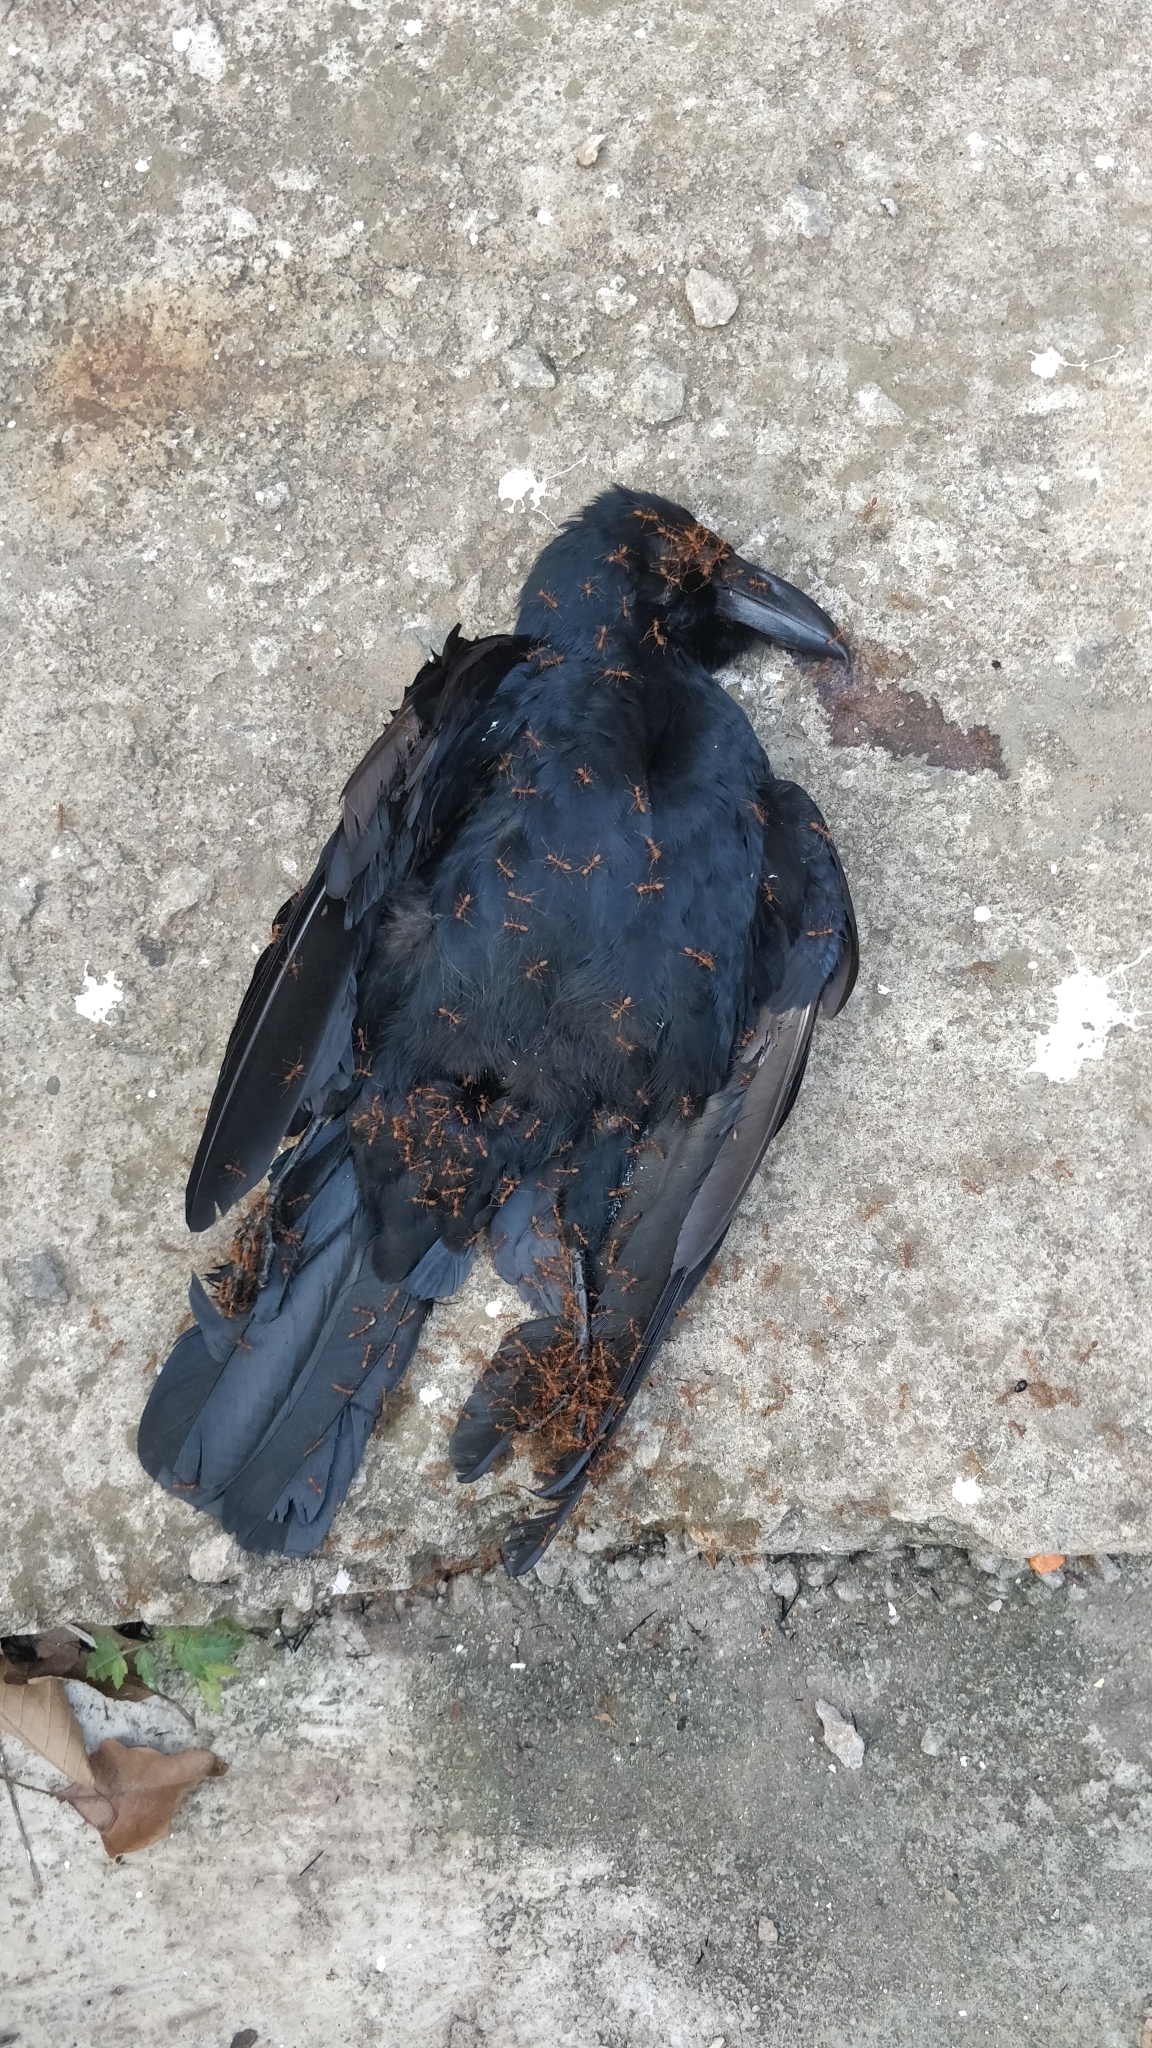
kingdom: Animalia
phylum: Chordata
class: Aves
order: Passeriformes
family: Corvidae
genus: Corvus
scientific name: Corvus macrorhynchos
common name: Large-billed crow
